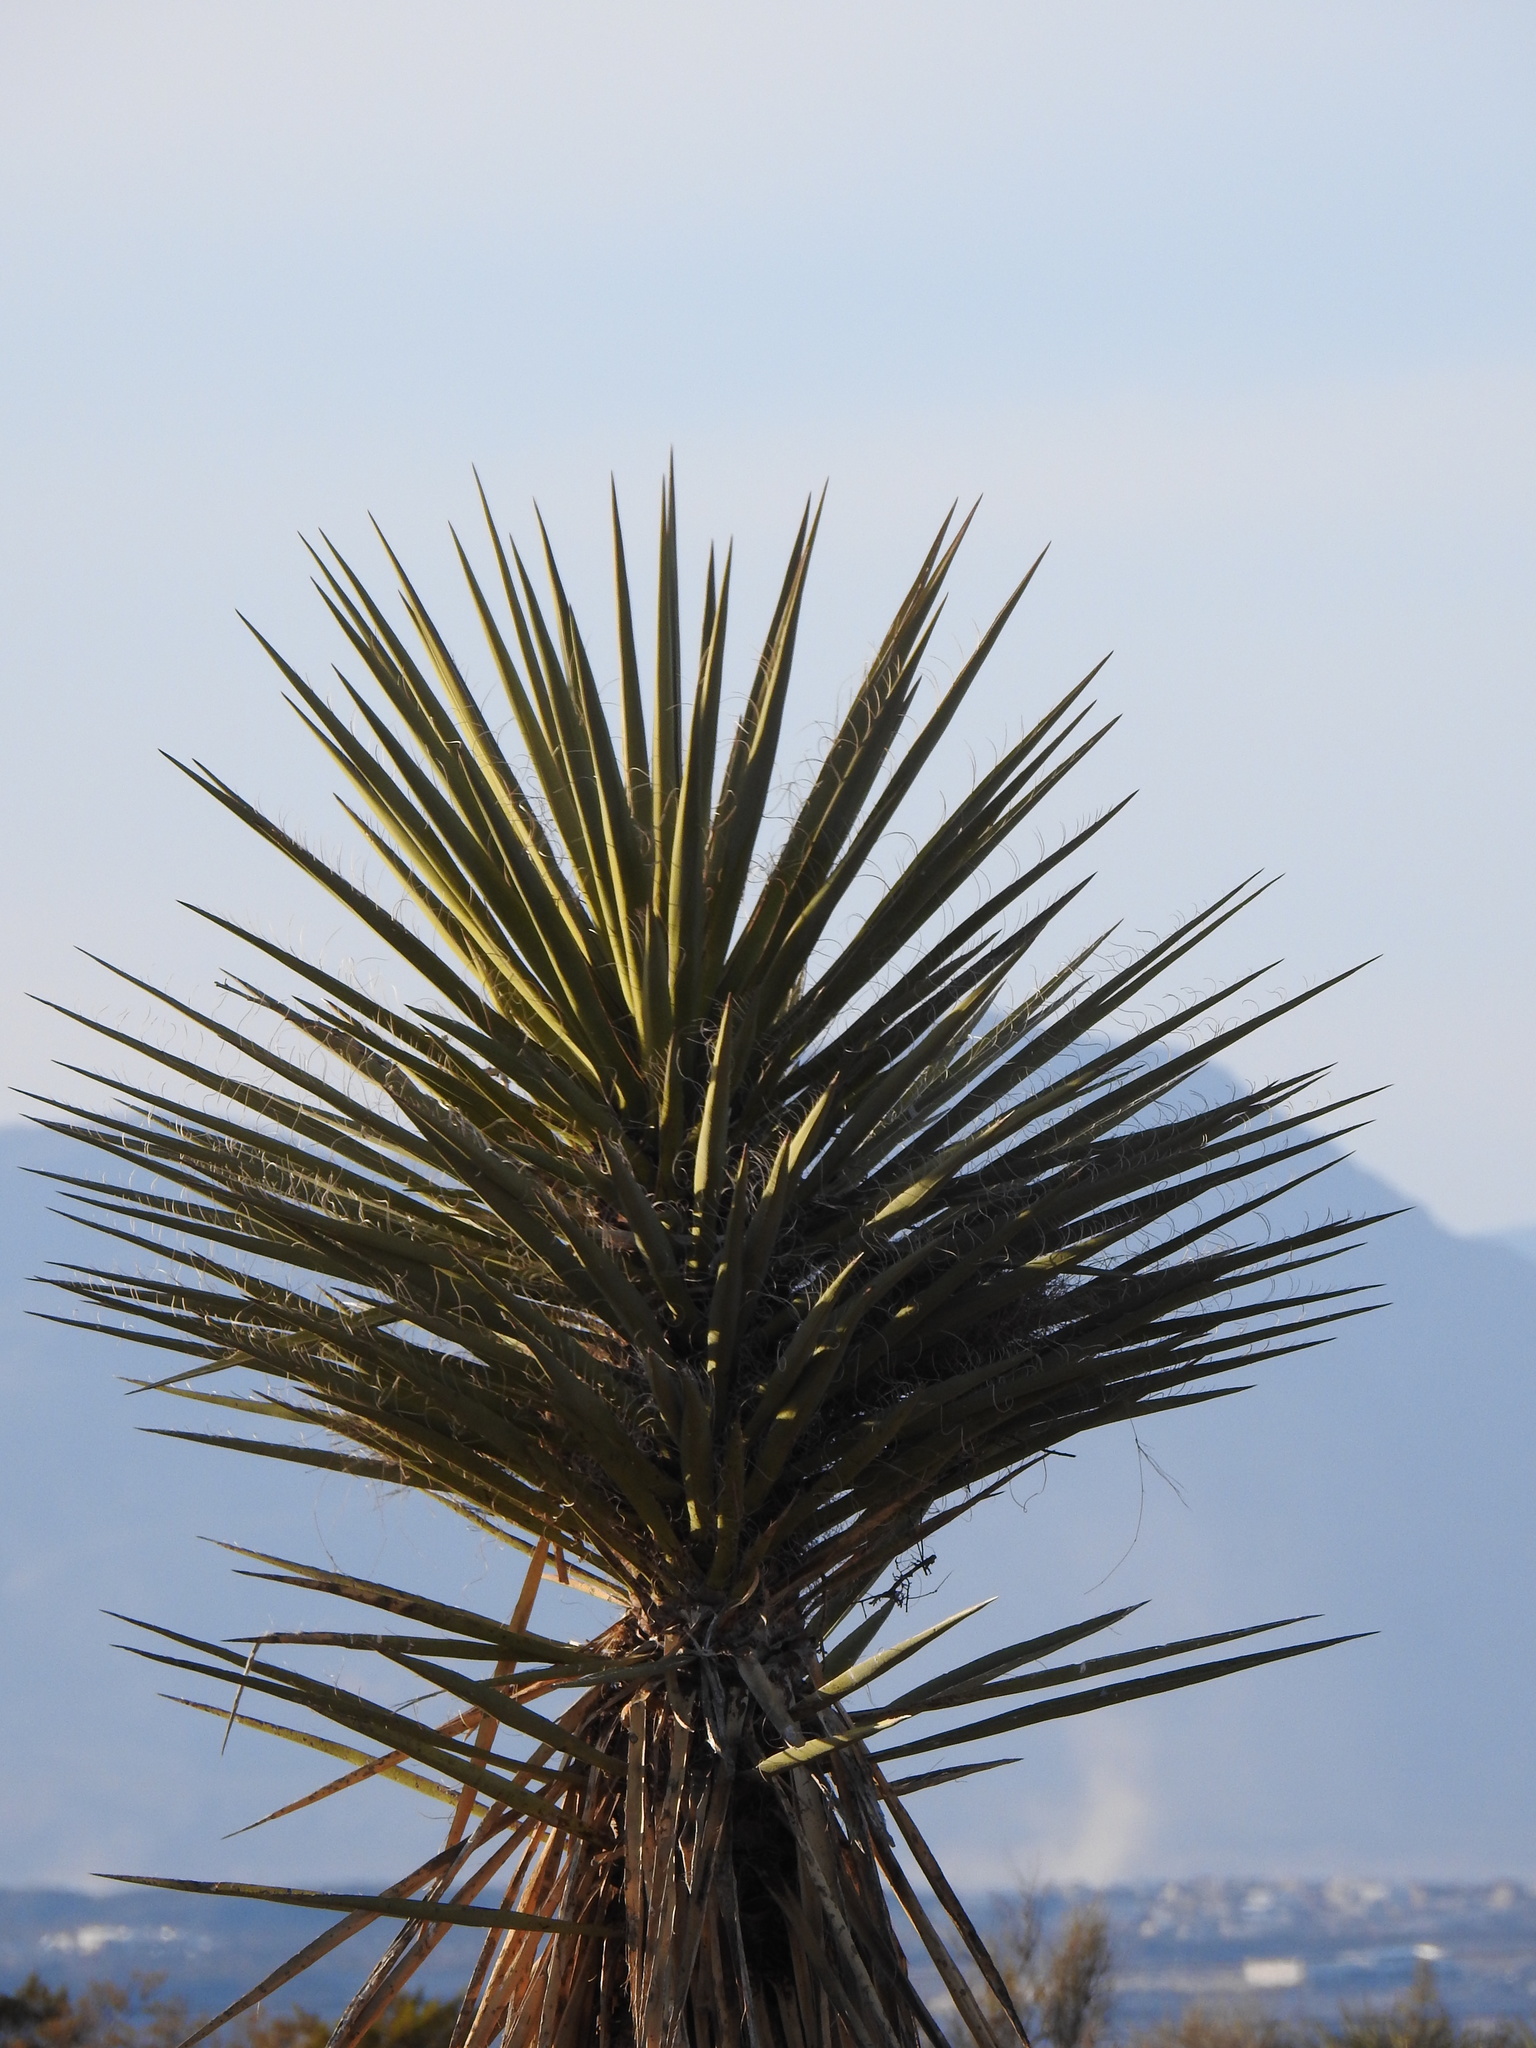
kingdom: Plantae
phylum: Tracheophyta
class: Liliopsida
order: Asparagales
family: Asparagaceae
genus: Yucca
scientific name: Yucca treculiana
